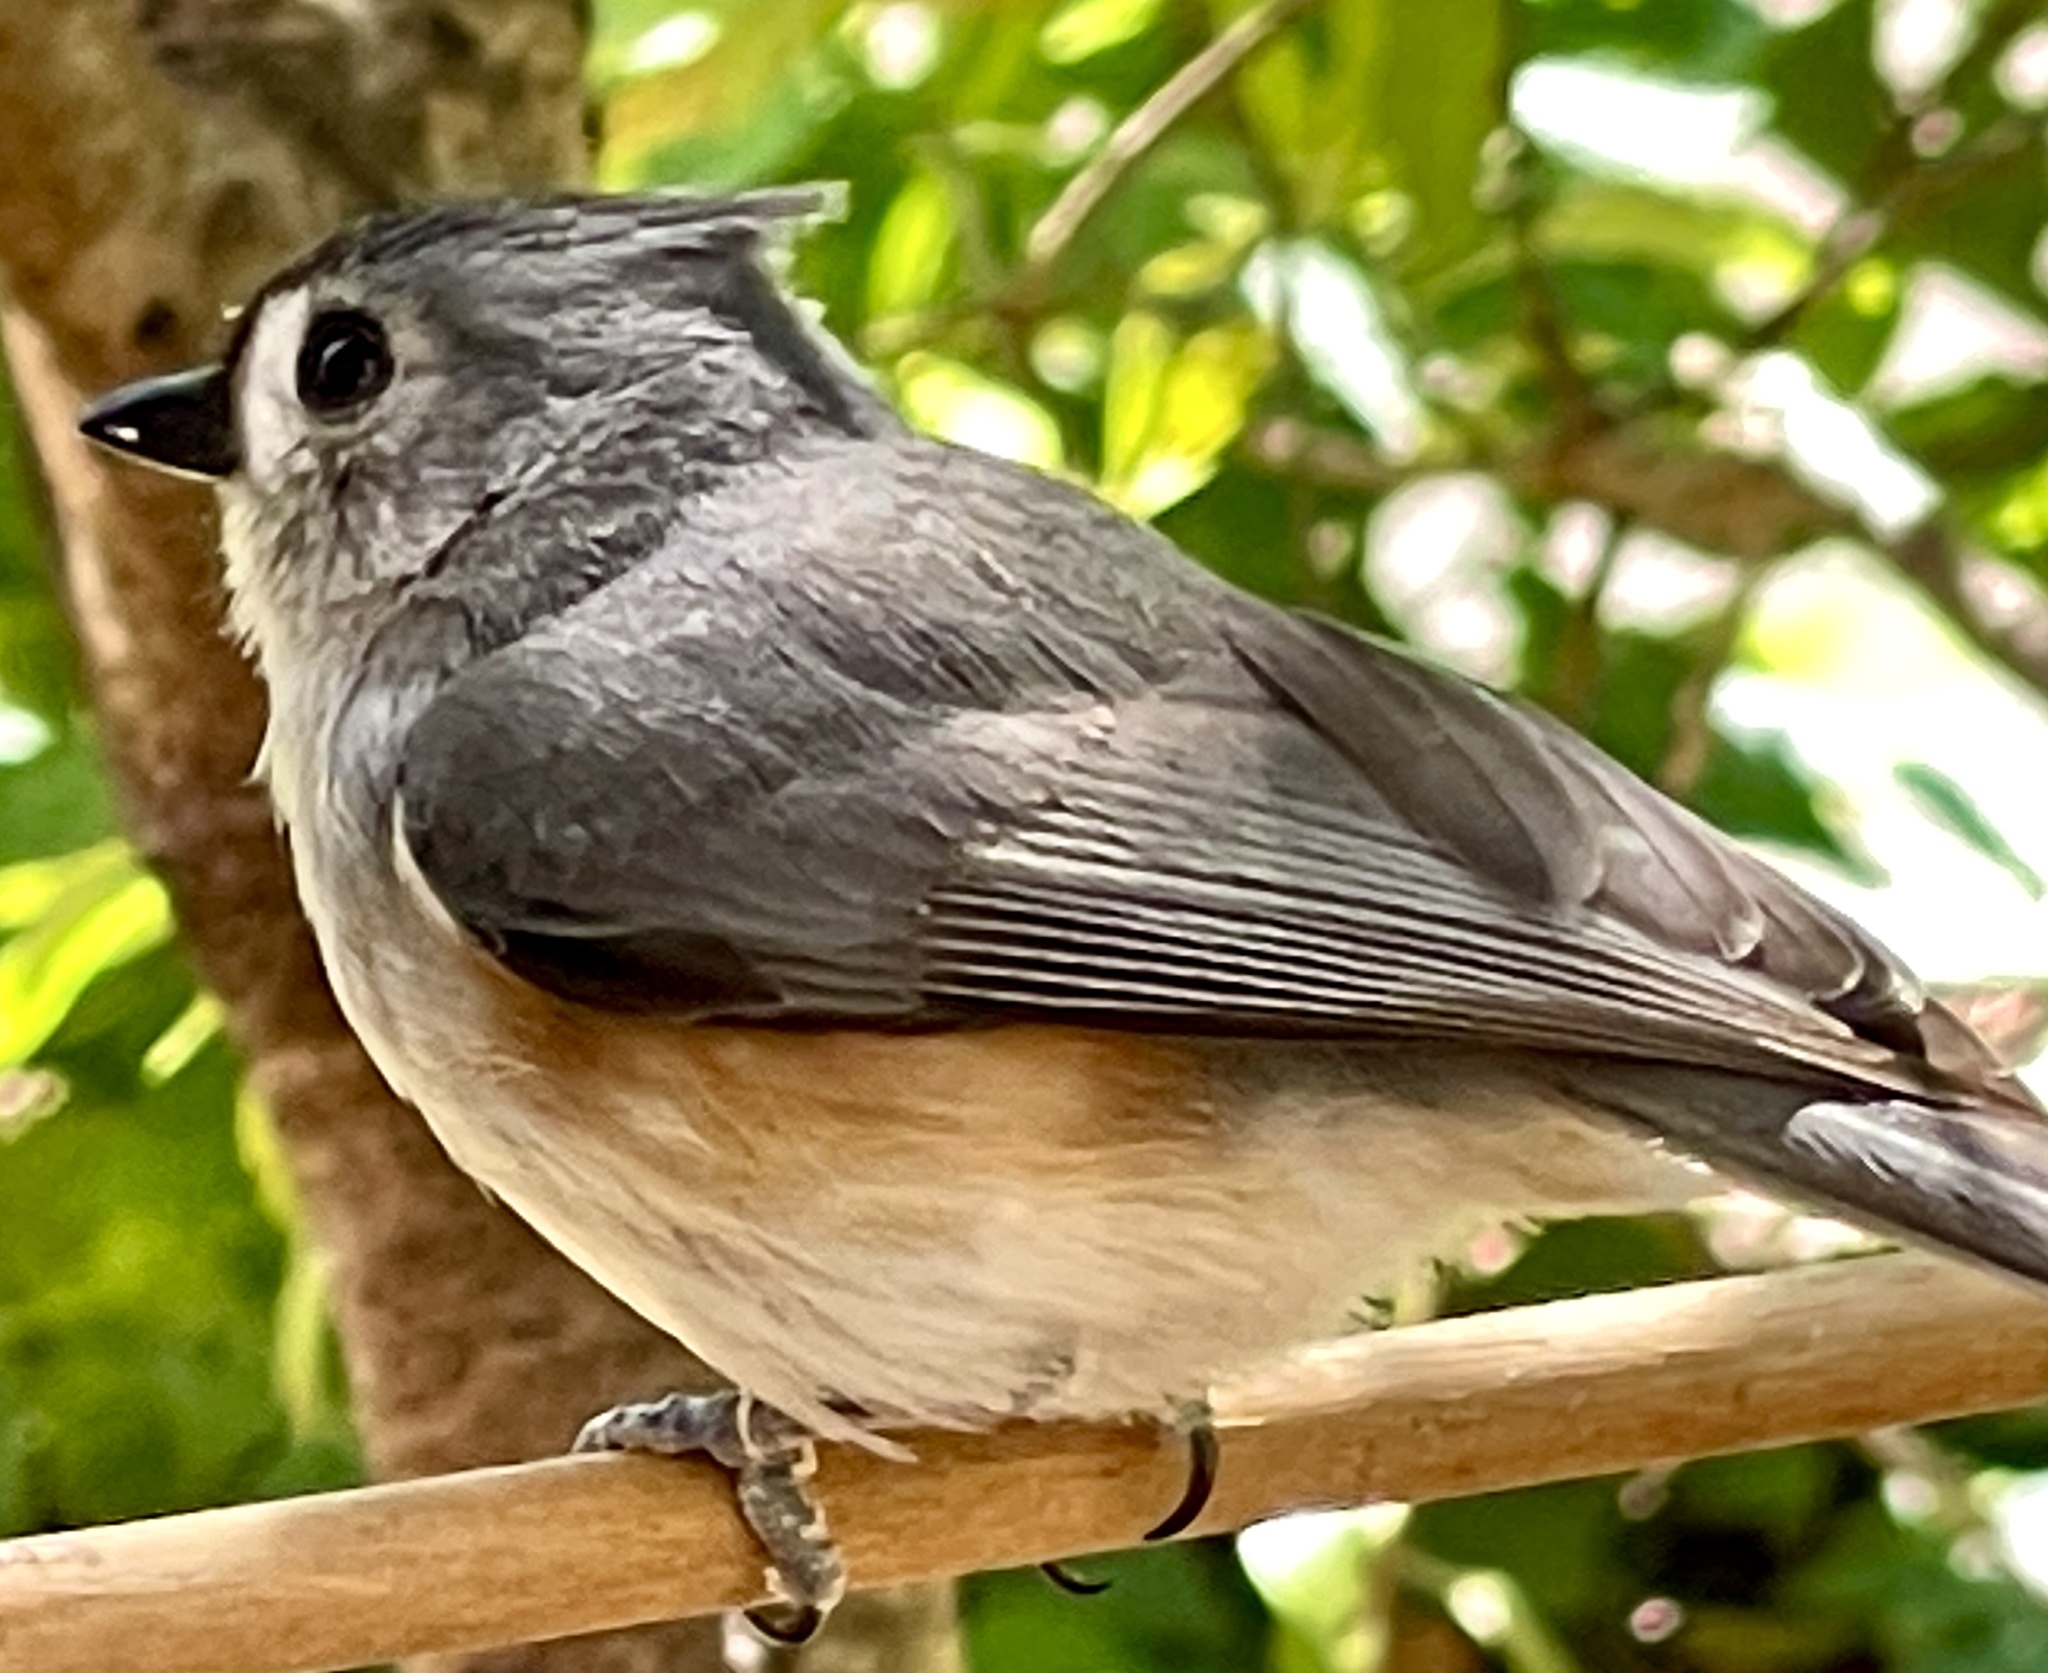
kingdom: Animalia
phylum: Chordata
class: Aves
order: Passeriformes
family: Paridae
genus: Baeolophus
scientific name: Baeolophus bicolor
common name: Tufted titmouse
